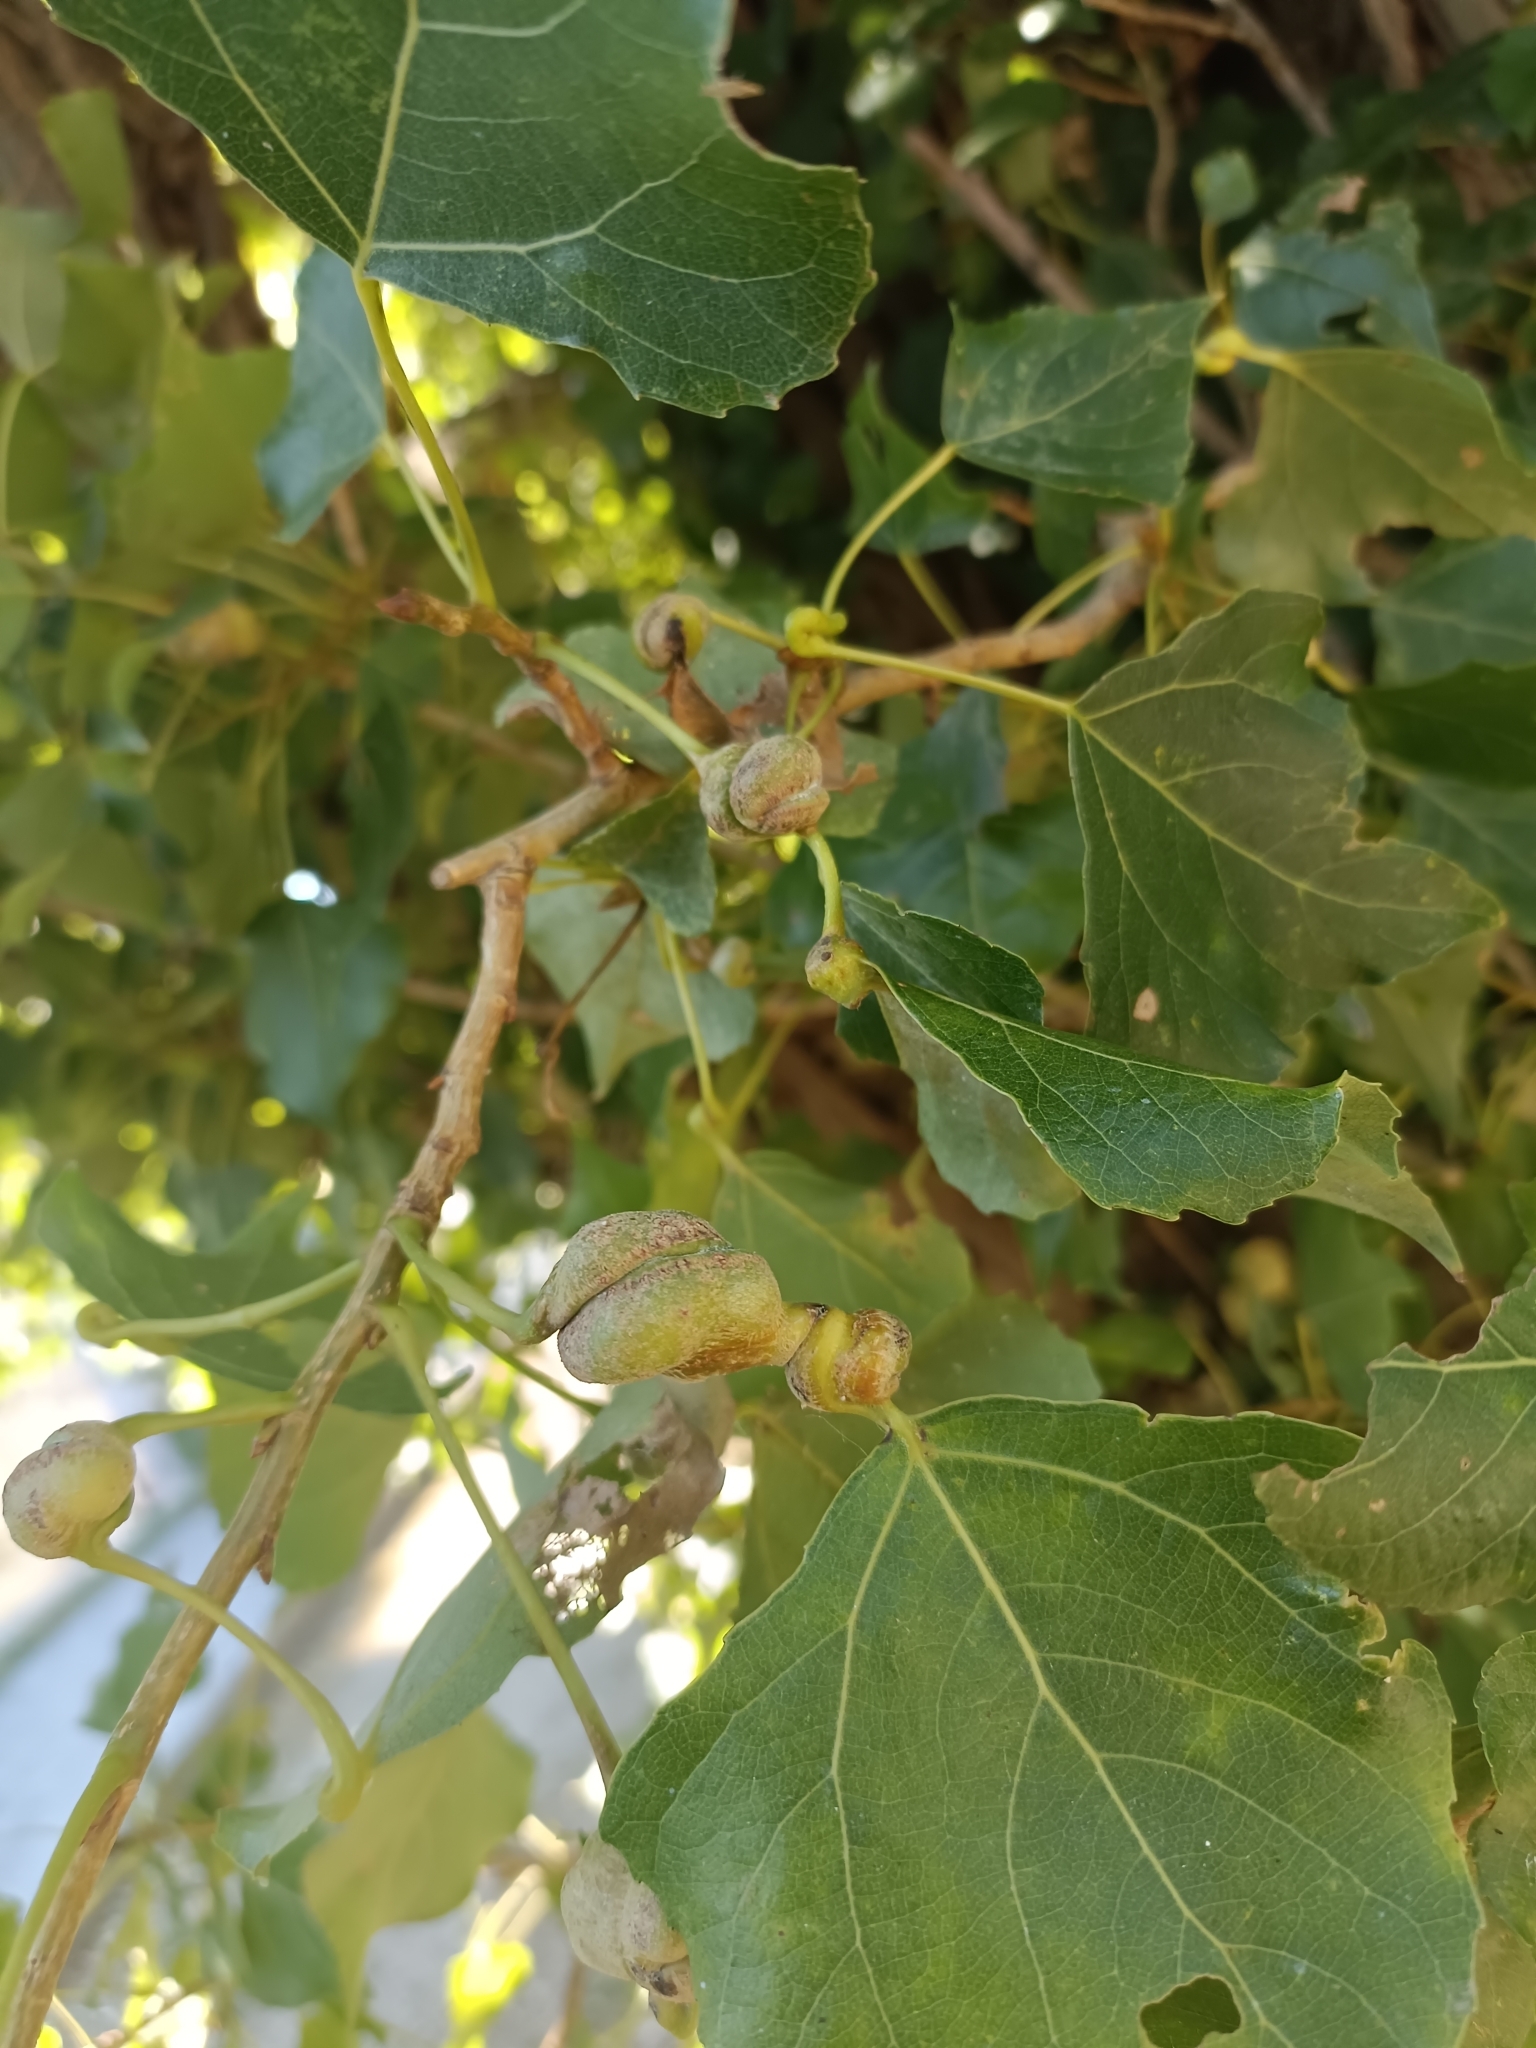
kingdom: Animalia
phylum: Arthropoda
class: Insecta
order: Hemiptera
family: Aphididae
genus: Pemphigus
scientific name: Pemphigus spyrothecae
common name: Aphid
